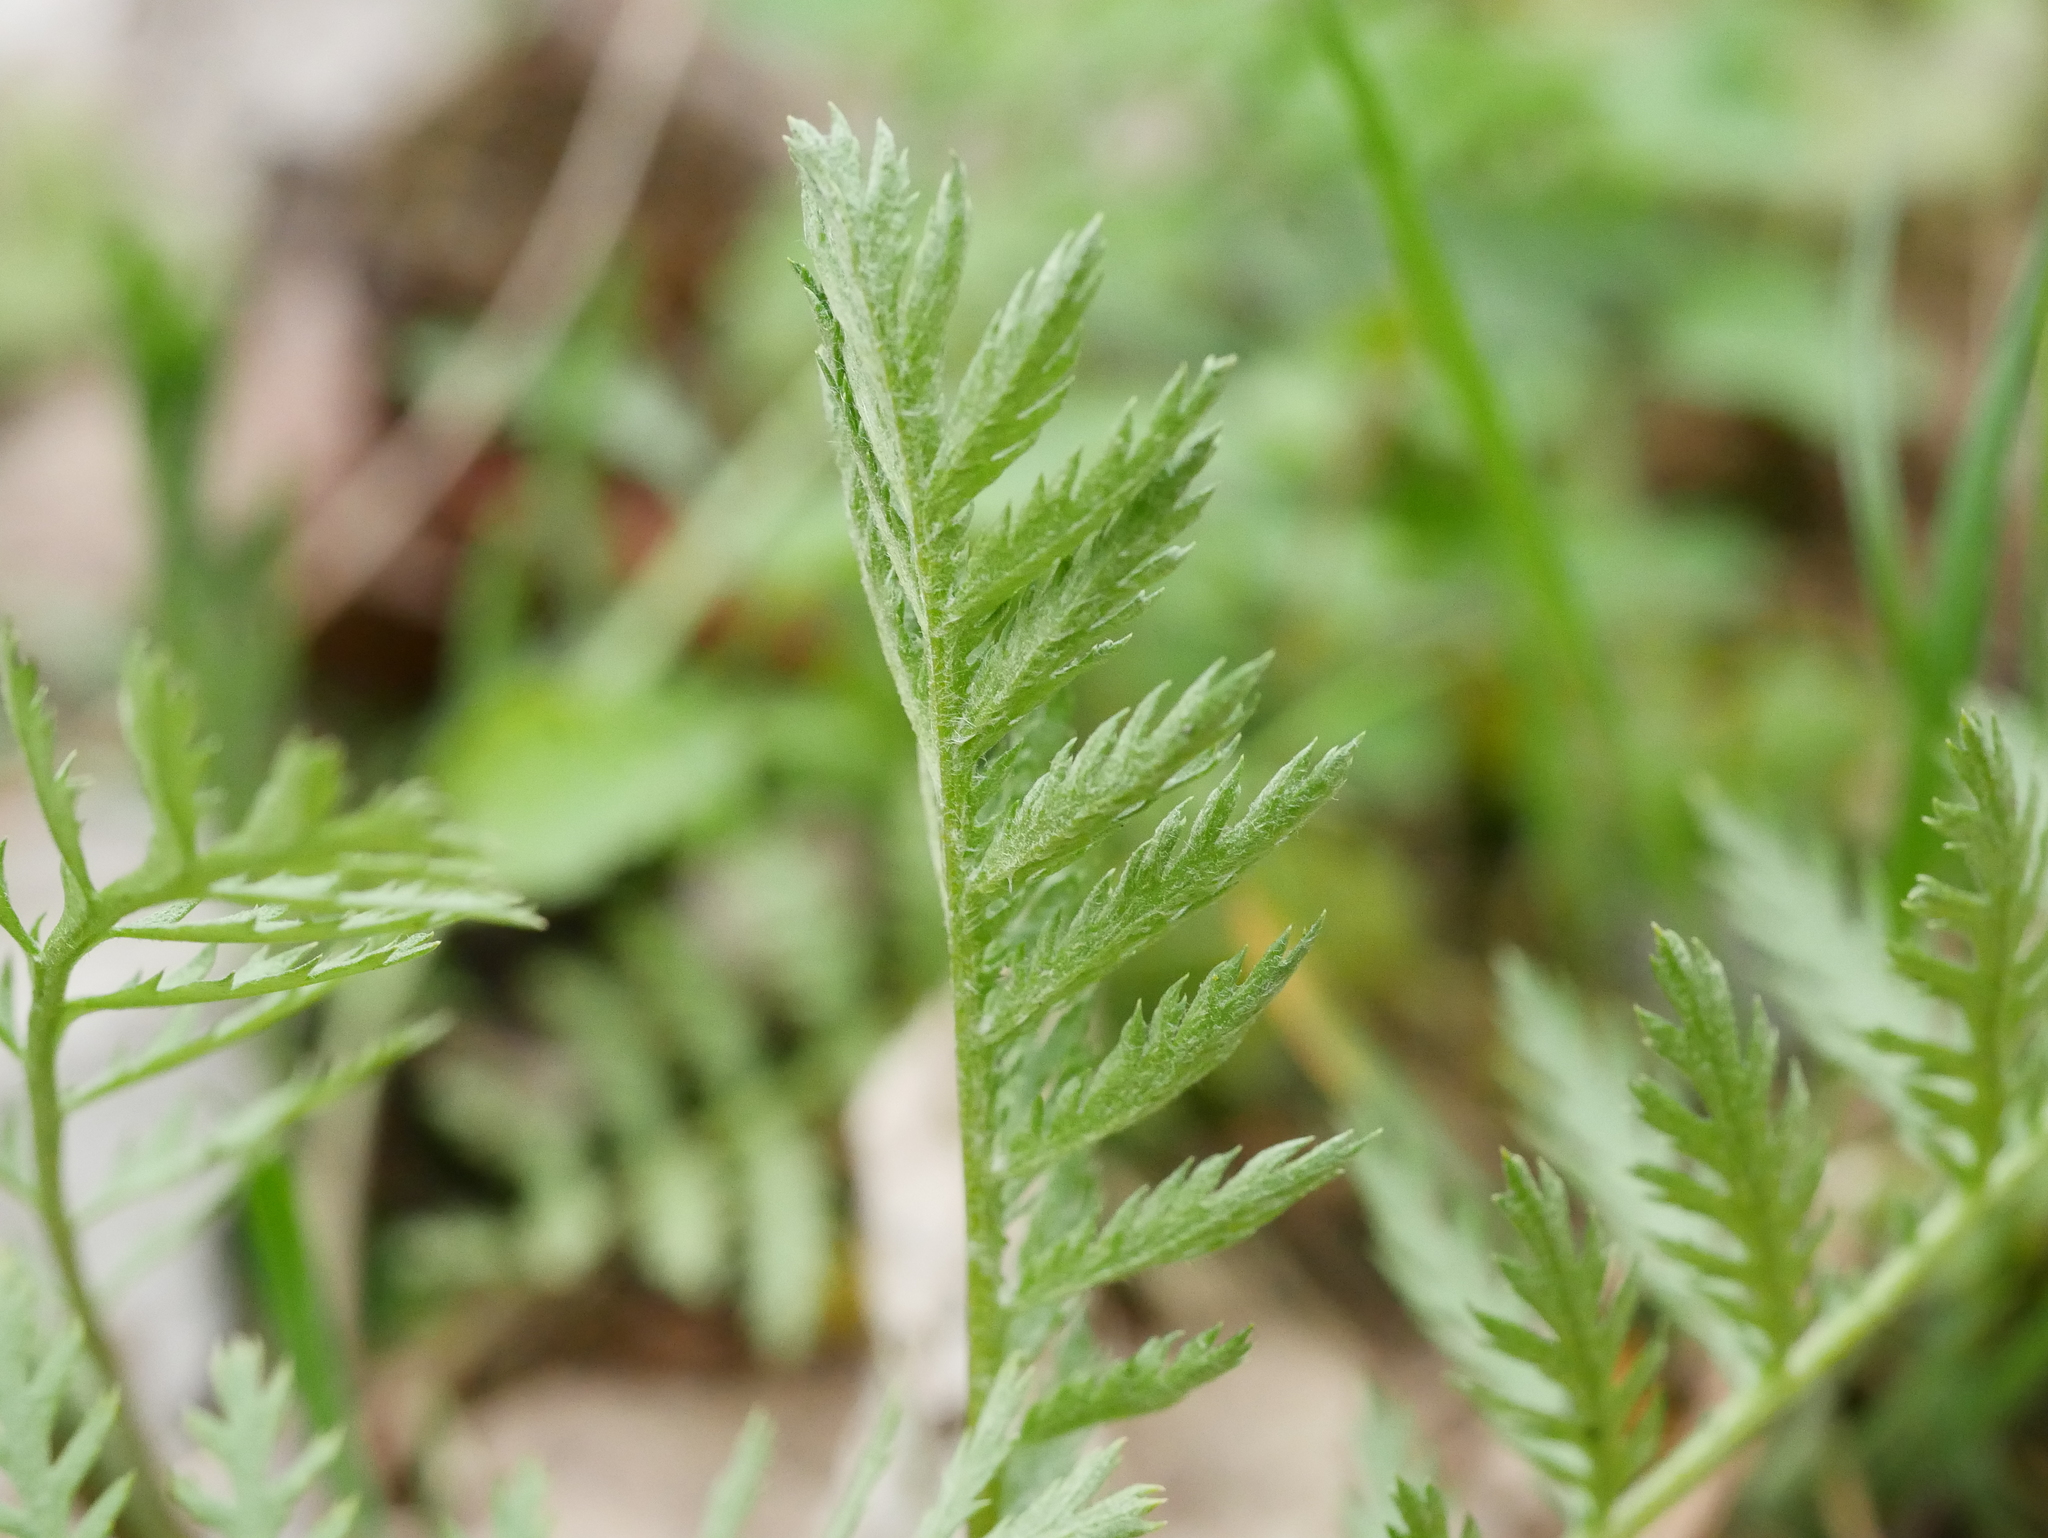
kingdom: Plantae
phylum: Tracheophyta
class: Magnoliopsida
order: Asterales
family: Asteraceae
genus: Tanacetum
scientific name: Tanacetum vulgare
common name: Common tansy
